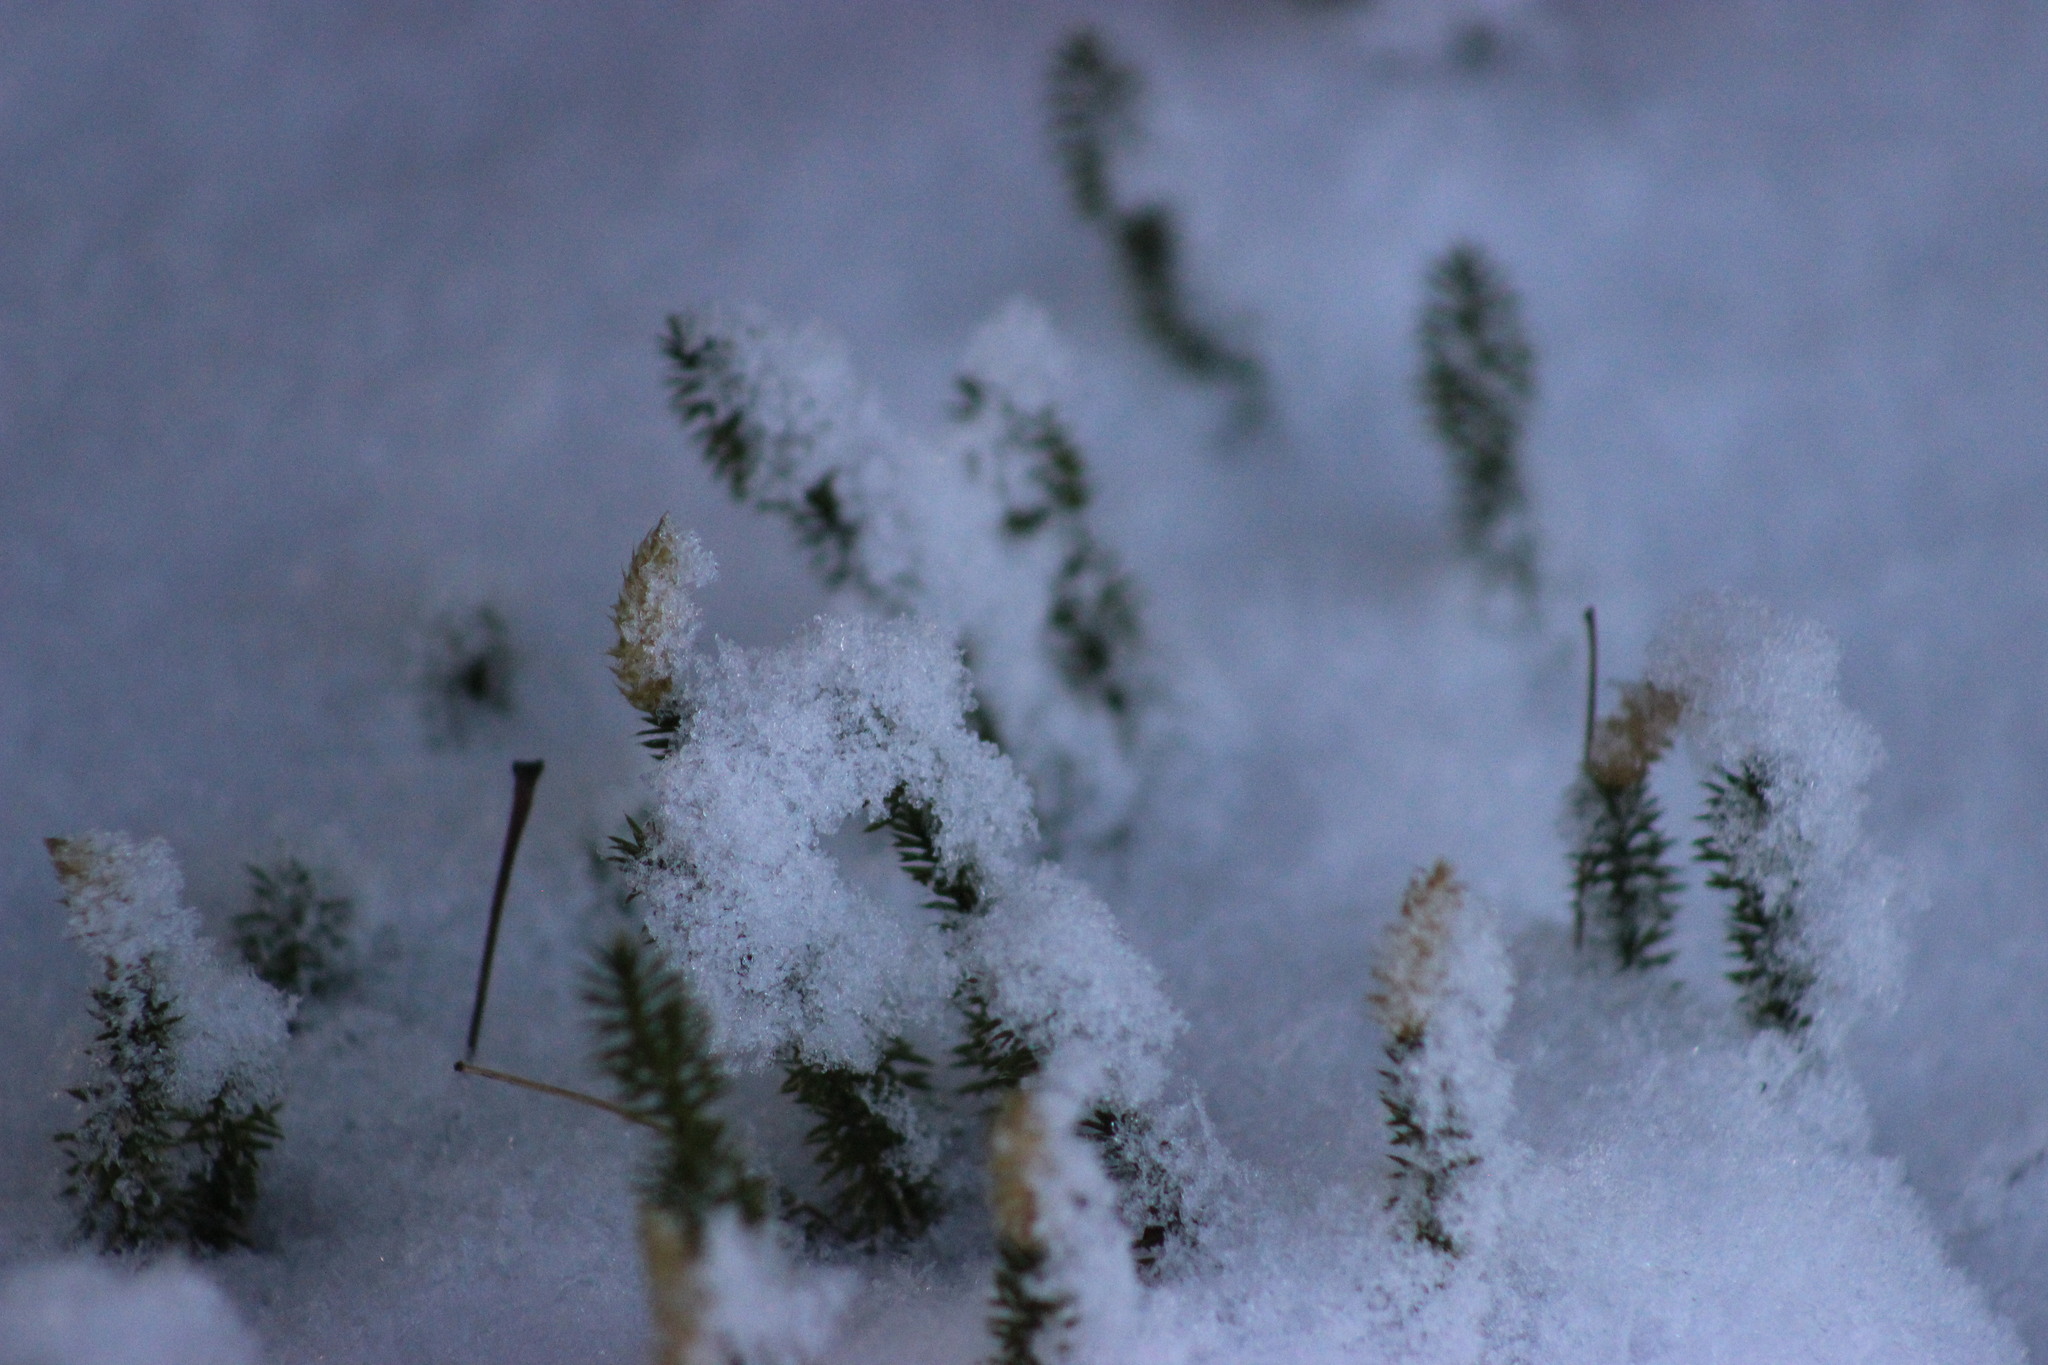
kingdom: Plantae
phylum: Tracheophyta
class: Lycopodiopsida
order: Lycopodiales
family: Lycopodiaceae
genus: Spinulum
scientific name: Spinulum annotinum
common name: Interrupted club-moss
